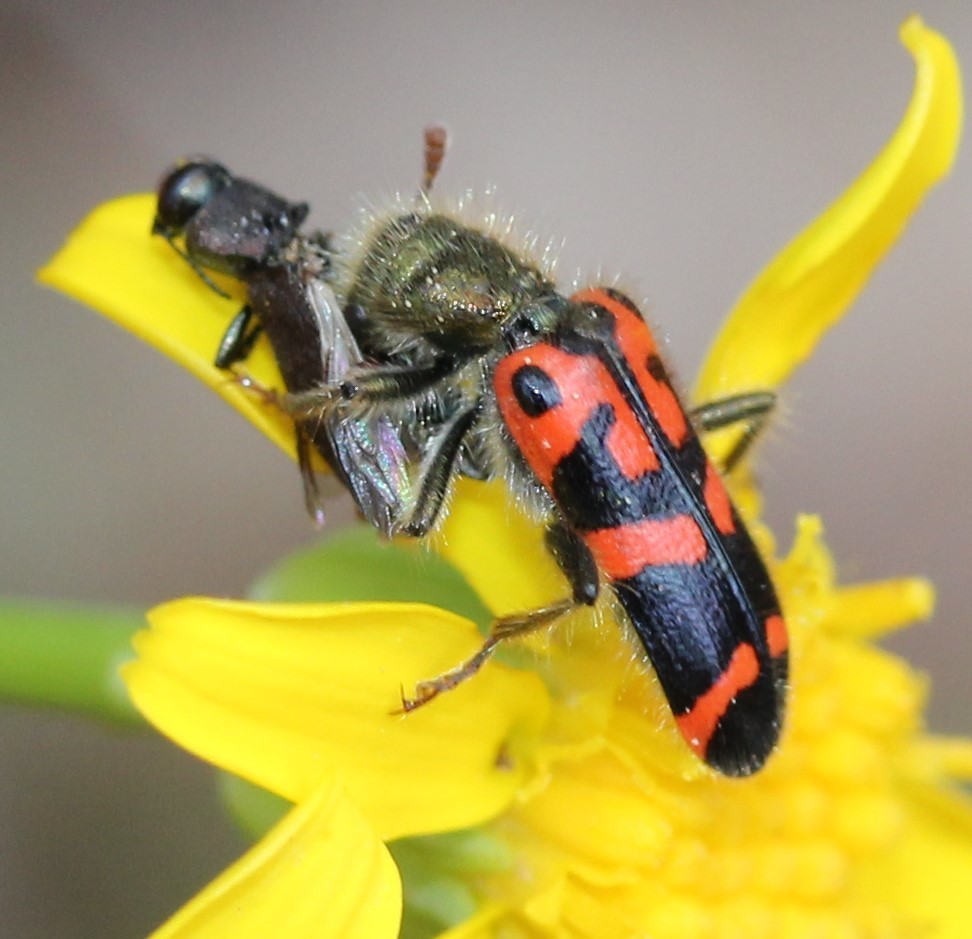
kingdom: Animalia
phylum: Arthropoda
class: Insecta
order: Coleoptera
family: Cleridae
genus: Trichodes
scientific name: Trichodes ornatus
